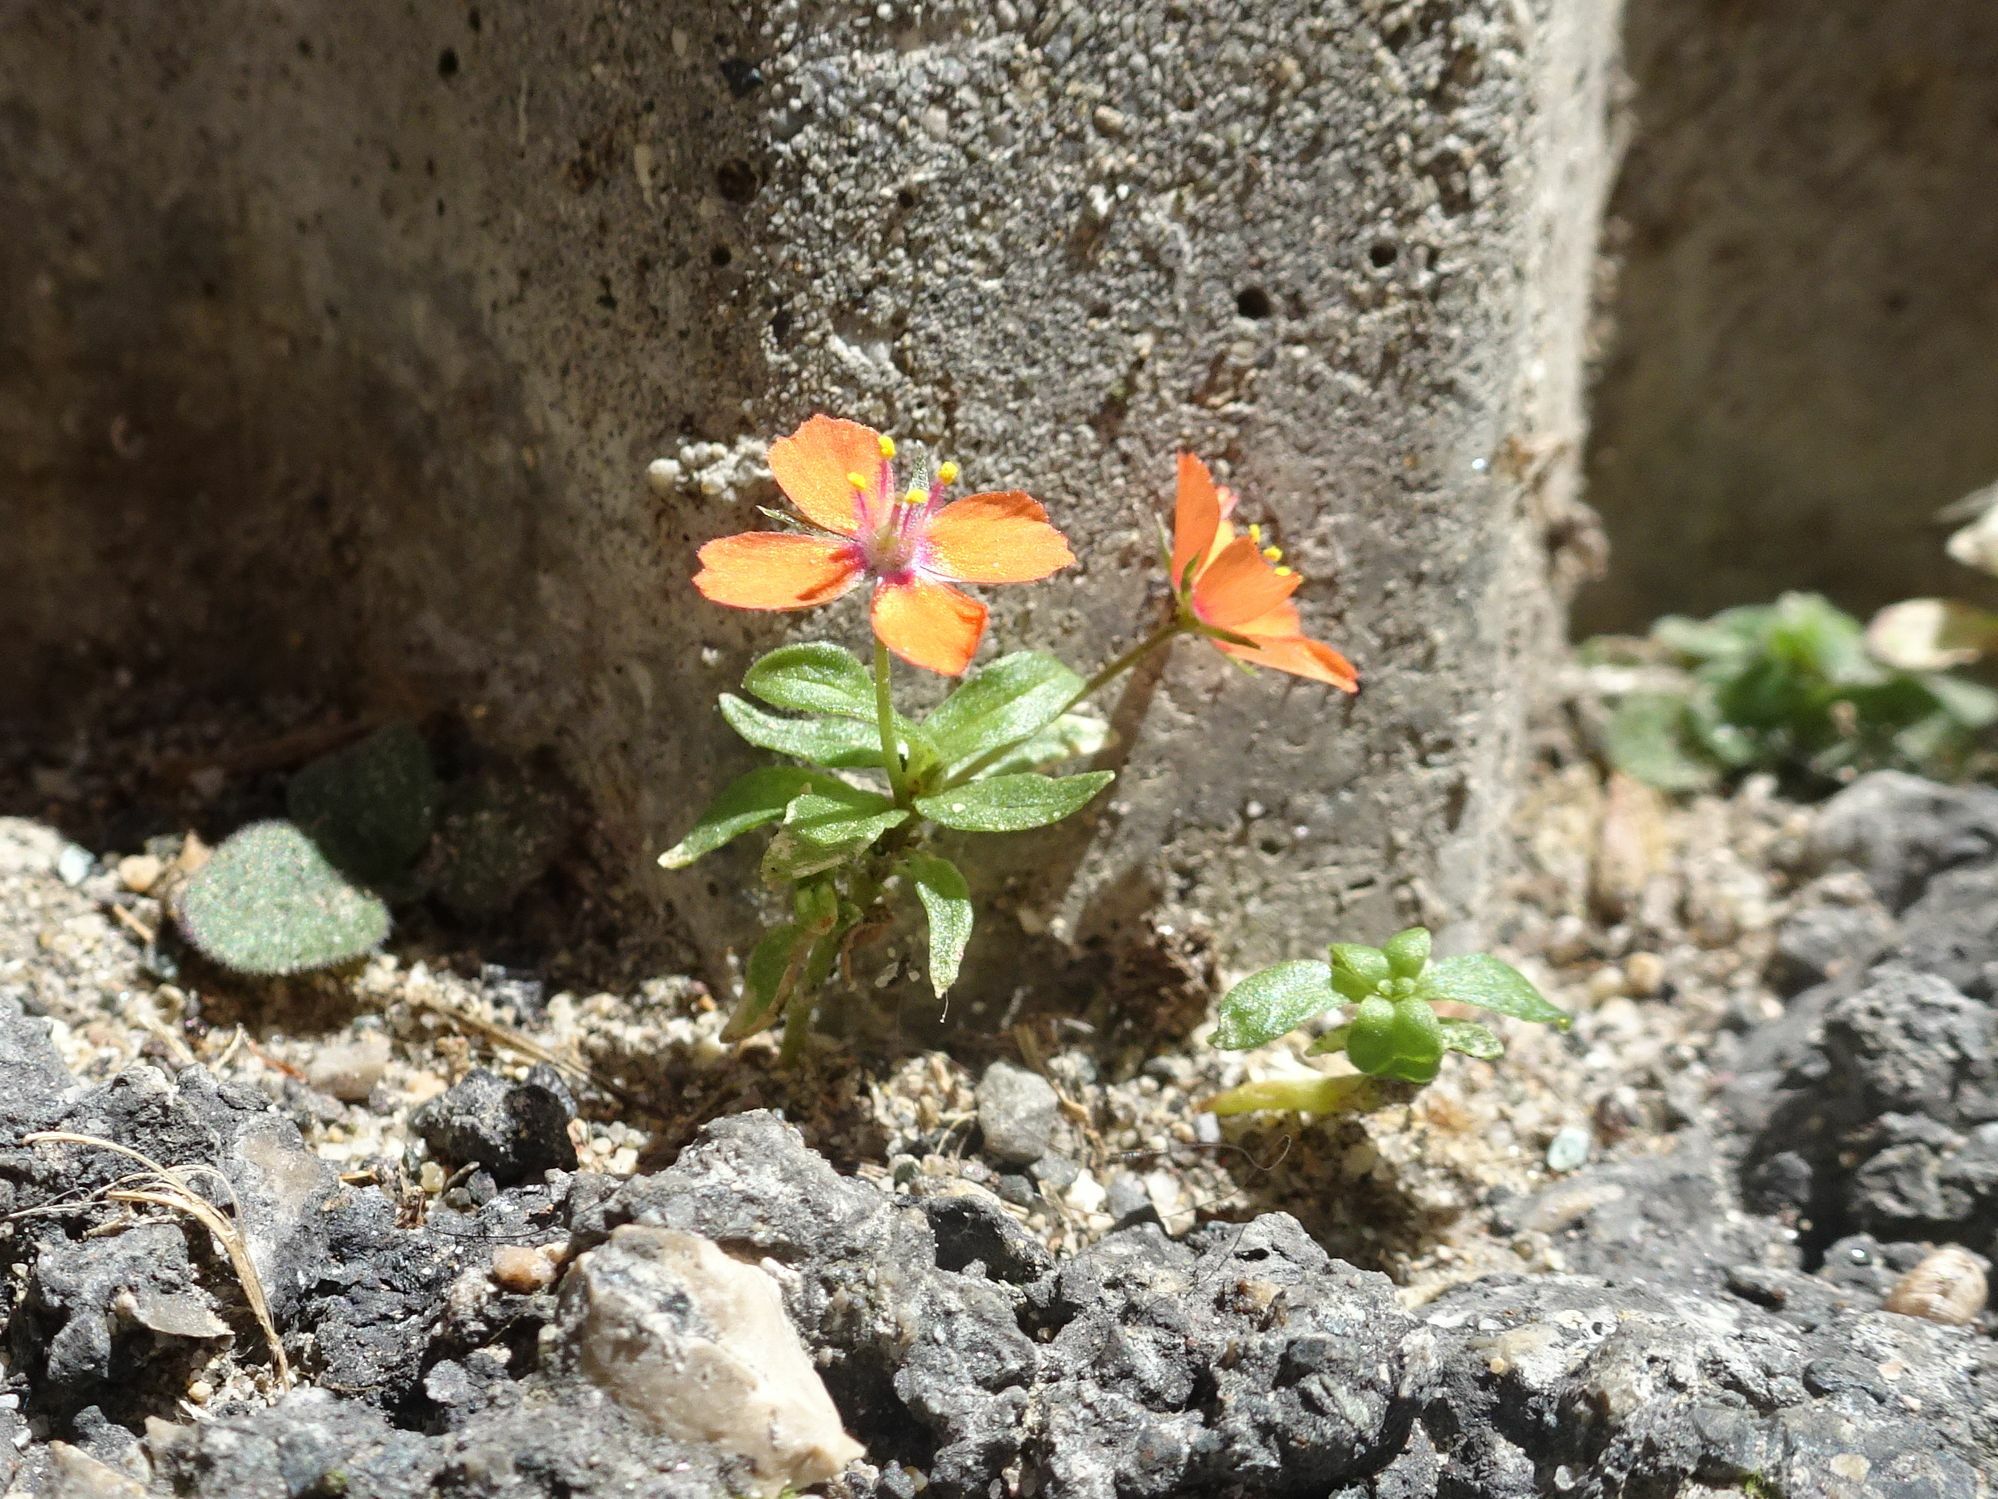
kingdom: Plantae
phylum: Tracheophyta
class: Magnoliopsida
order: Ericales
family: Primulaceae
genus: Lysimachia
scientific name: Lysimachia arvensis
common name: Scarlet pimpernel
